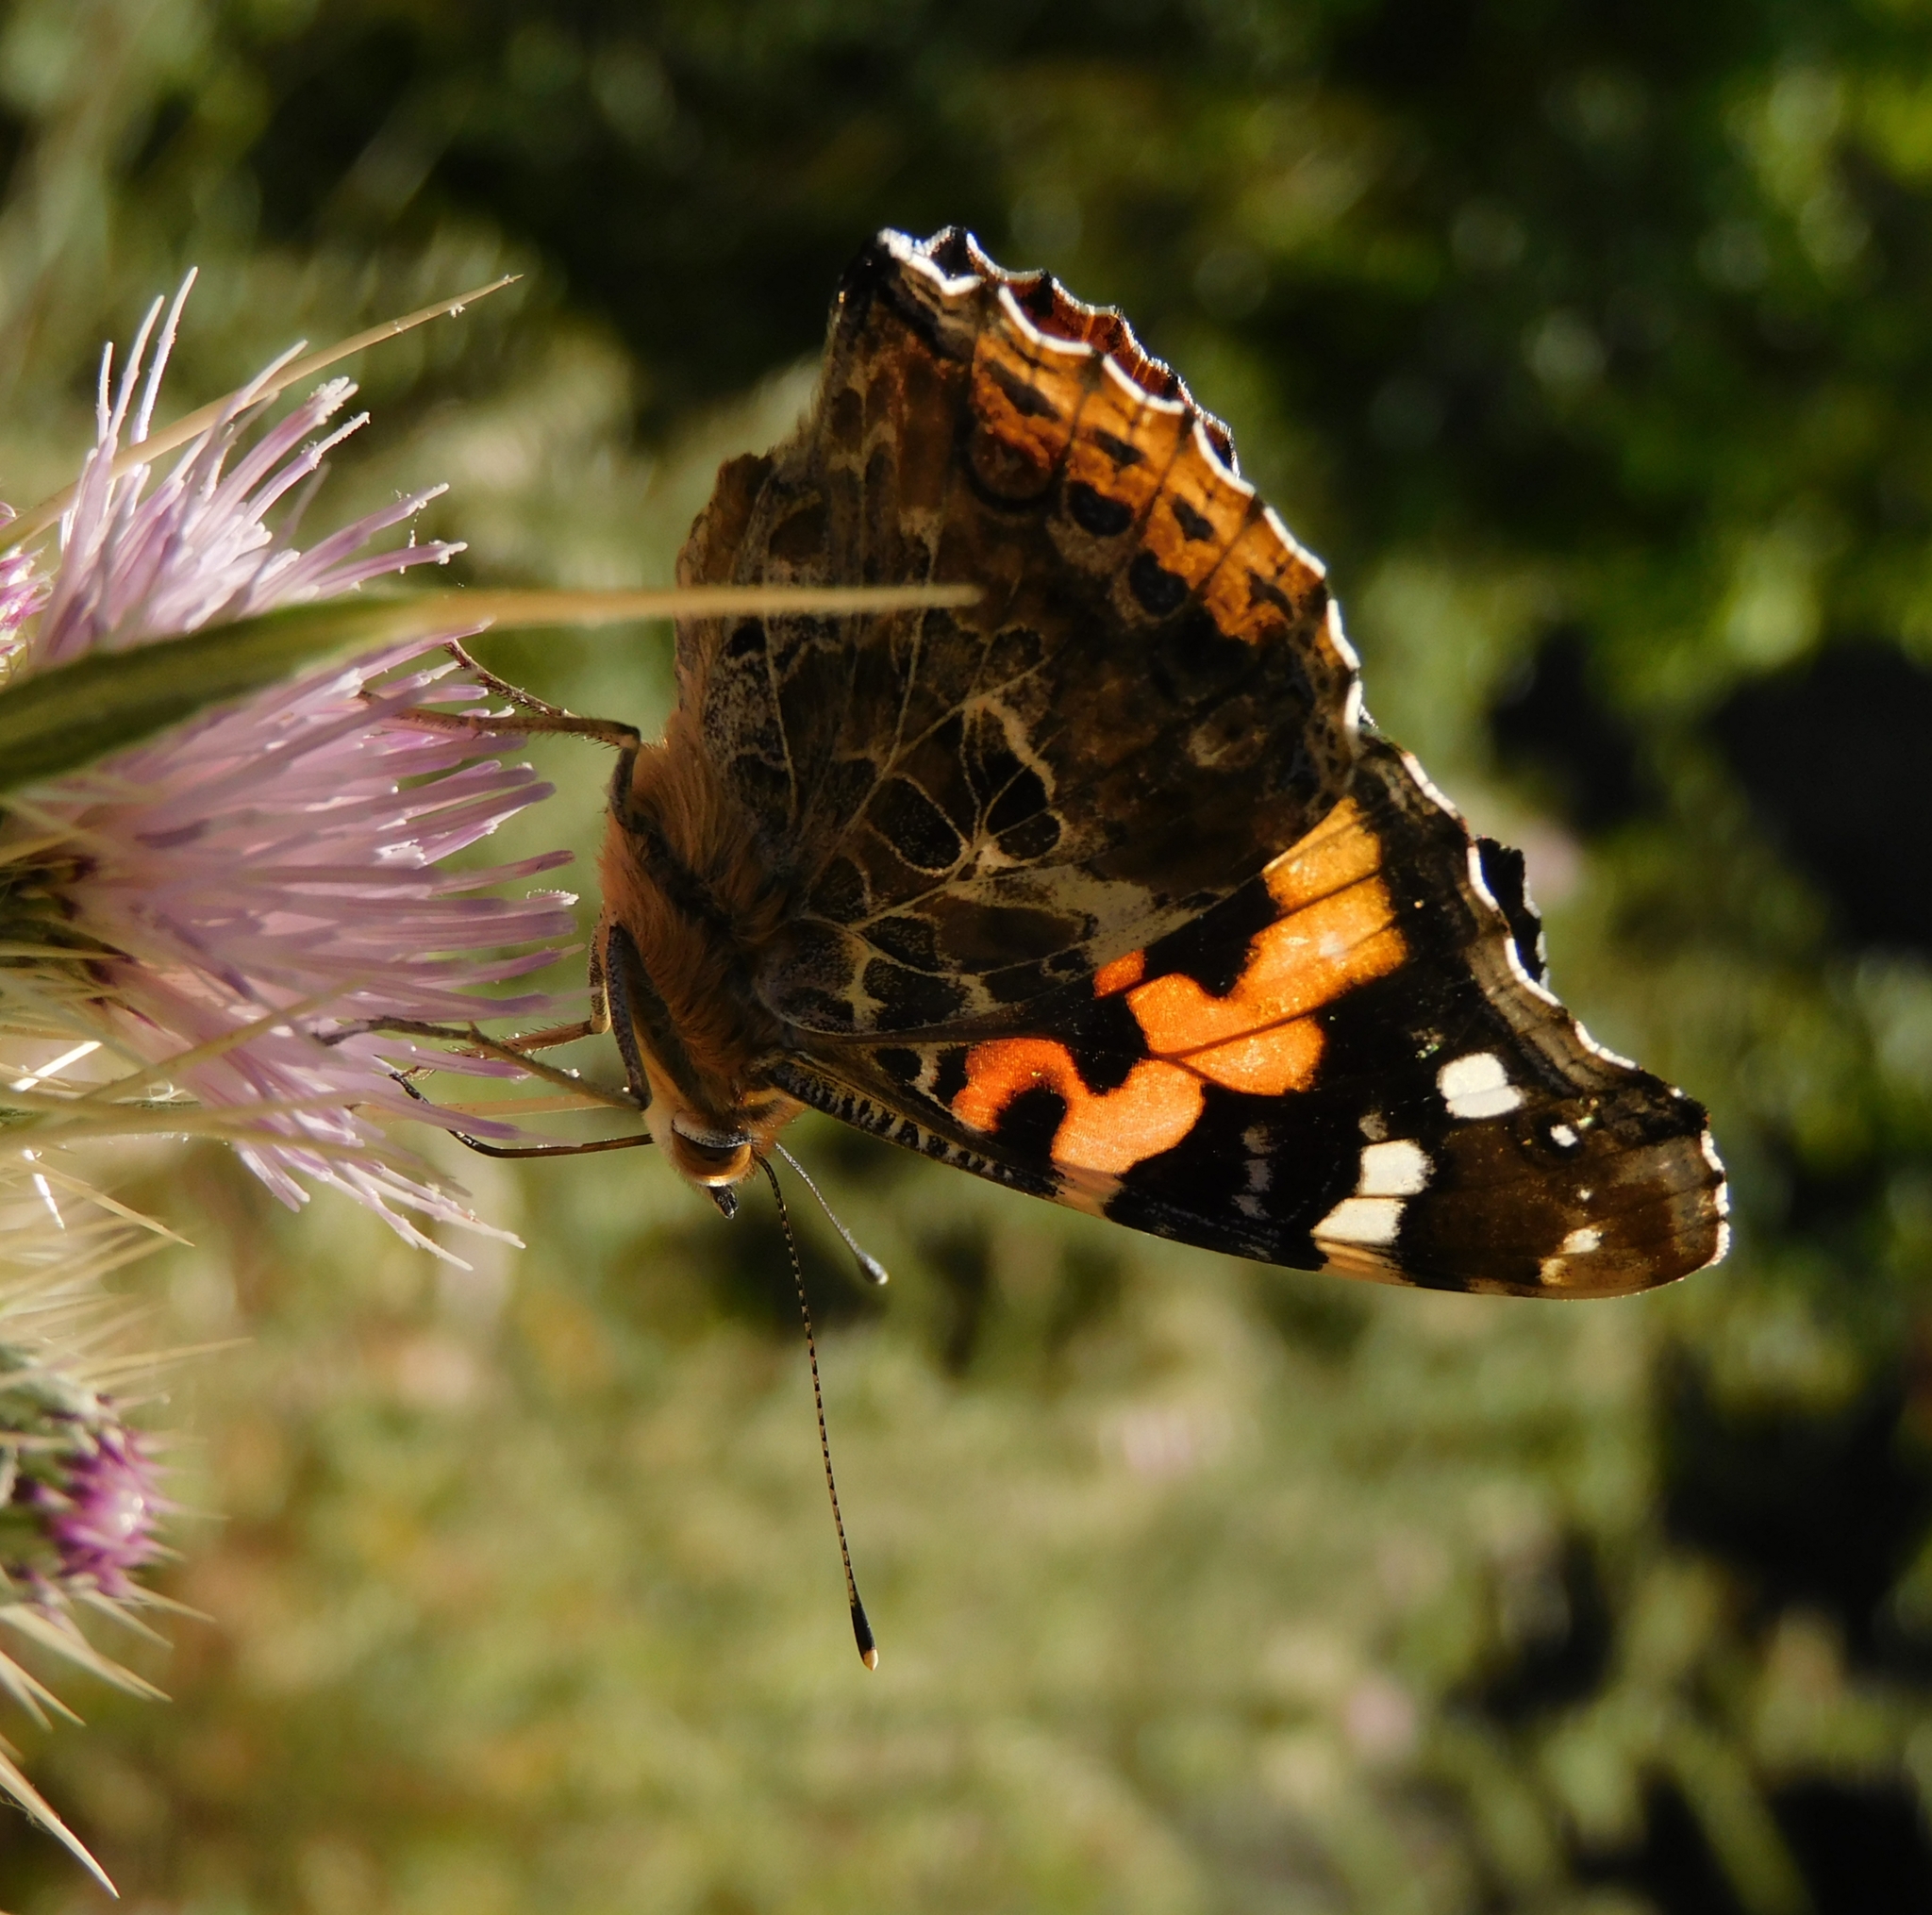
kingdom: Animalia
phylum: Arthropoda
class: Insecta
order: Lepidoptera
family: Nymphalidae
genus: Vanessa
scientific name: Vanessa indica
